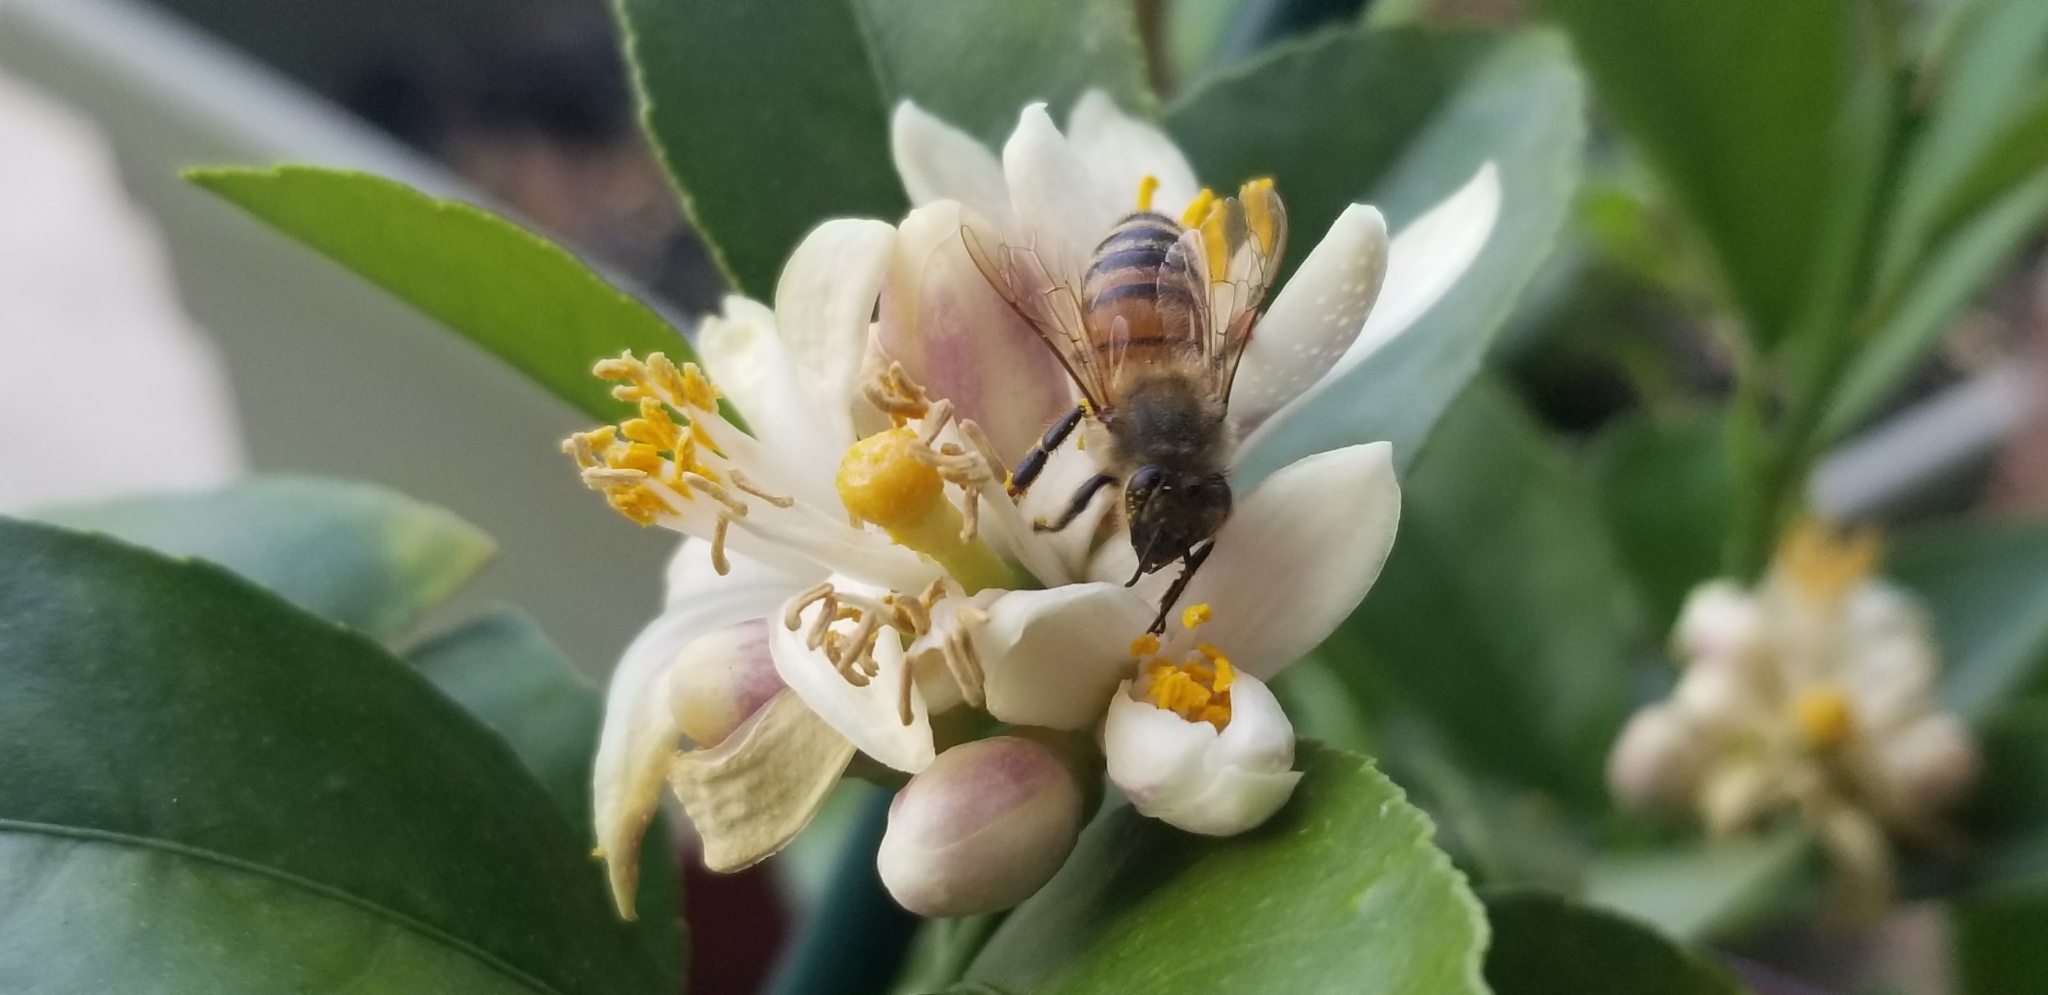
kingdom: Animalia
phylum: Arthropoda
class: Insecta
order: Hymenoptera
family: Apidae
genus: Apis
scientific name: Apis mellifera
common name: Honey bee
